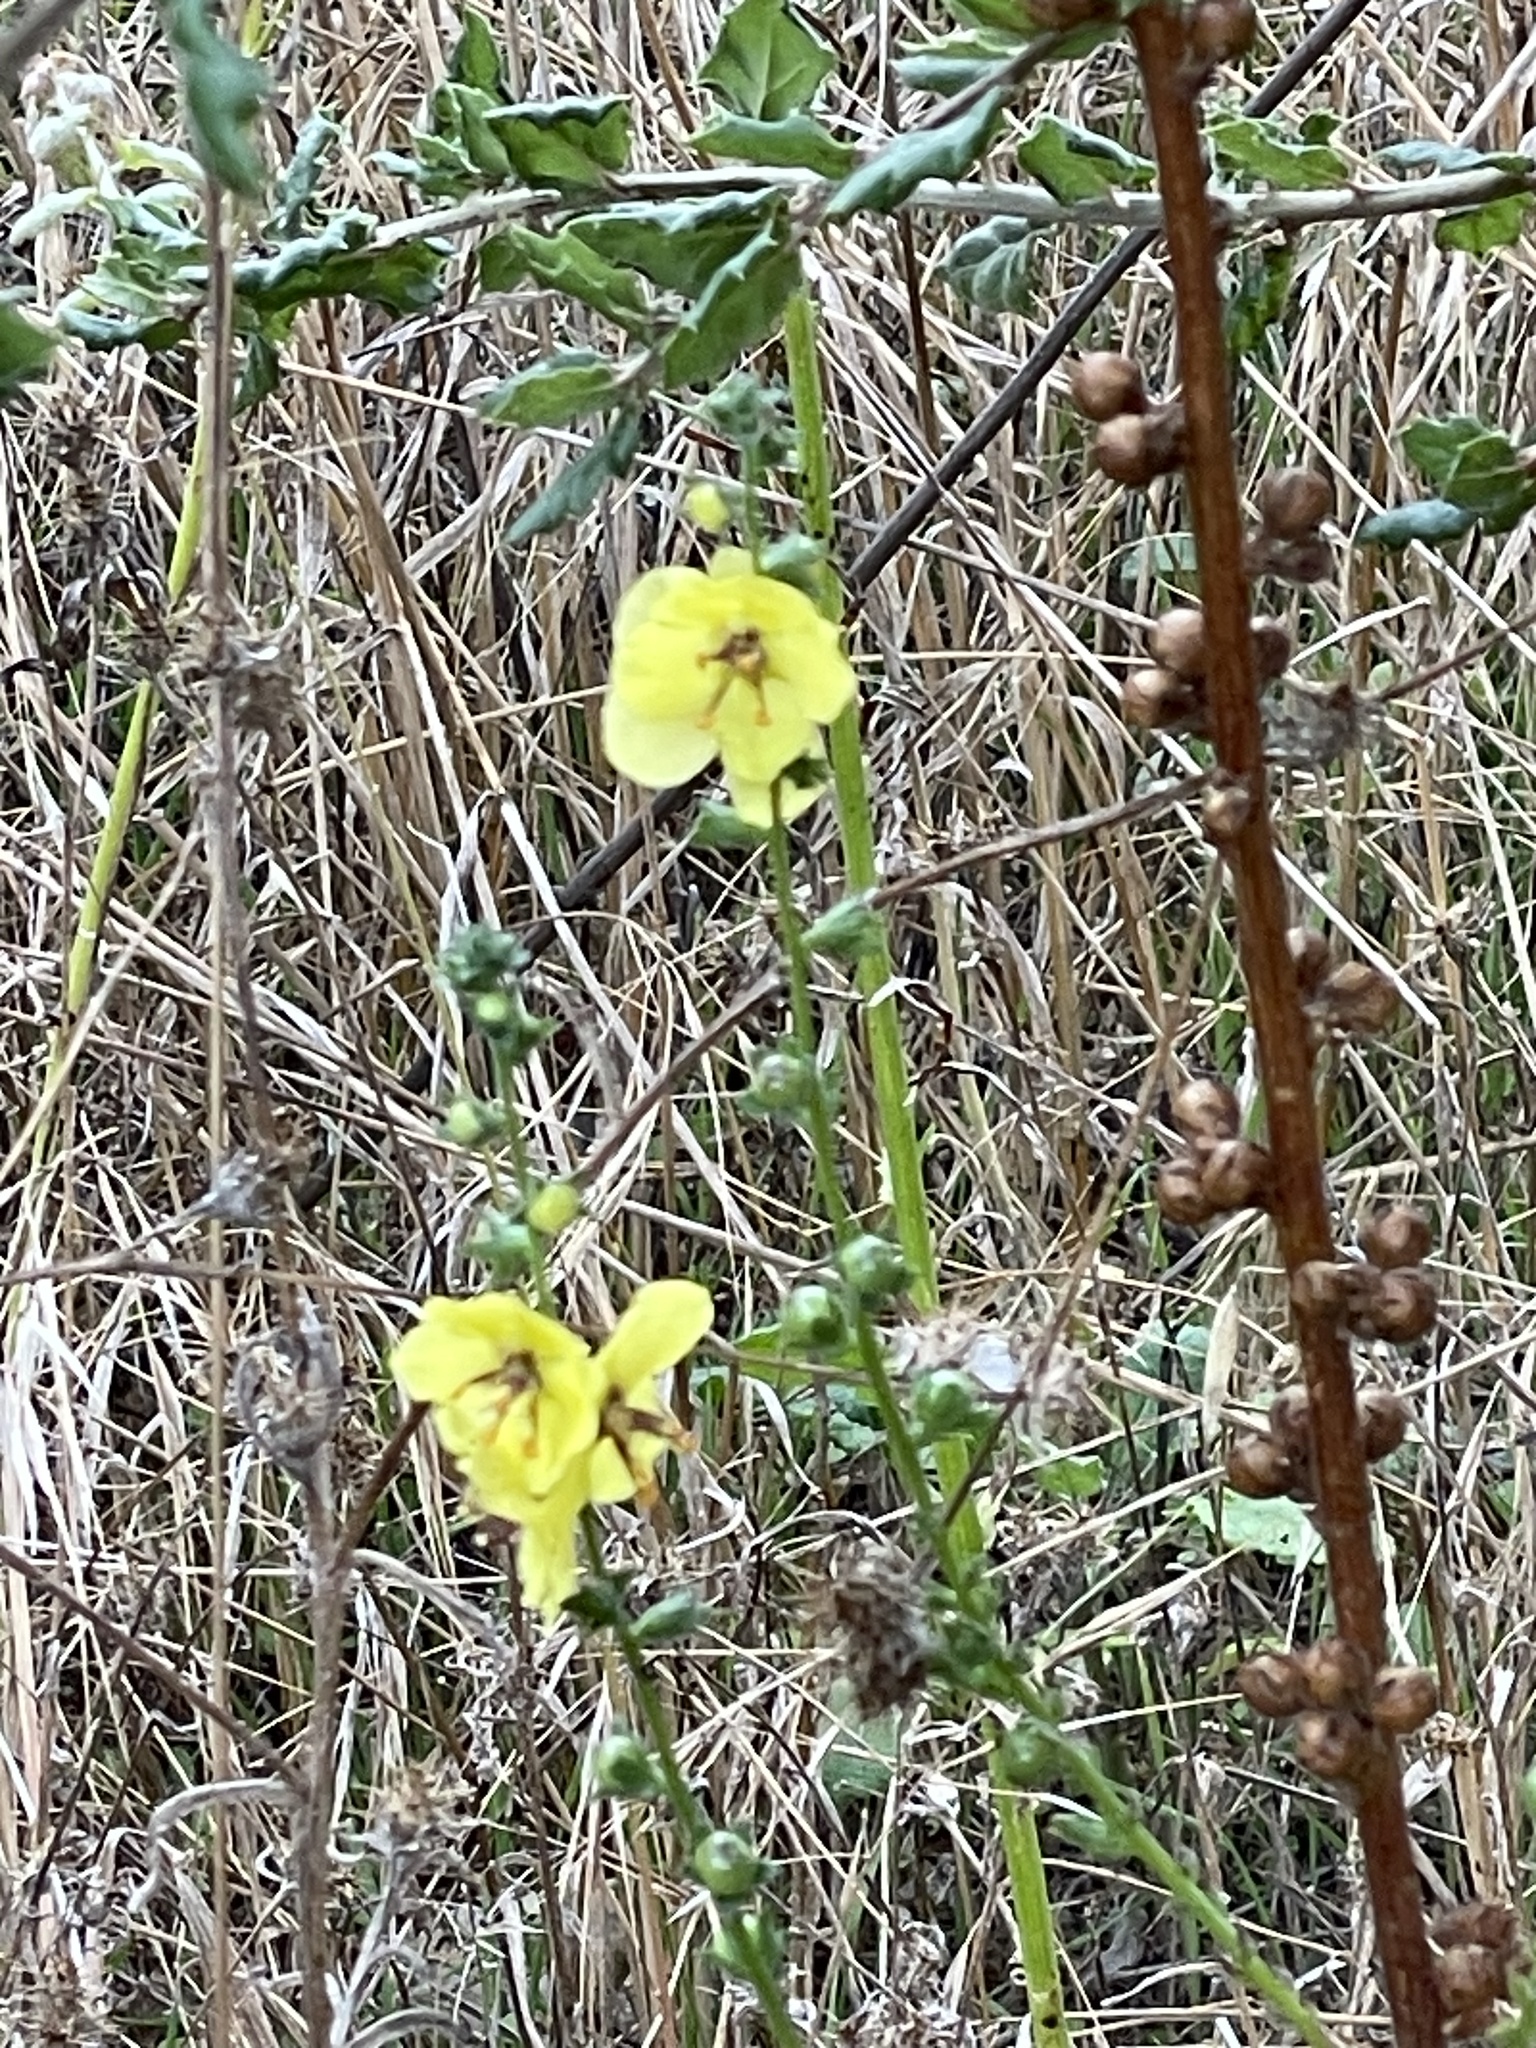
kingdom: Plantae
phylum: Tracheophyta
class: Magnoliopsida
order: Lamiales
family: Scrophulariaceae
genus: Verbascum
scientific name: Verbascum virgatum
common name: Twiggy mullein
